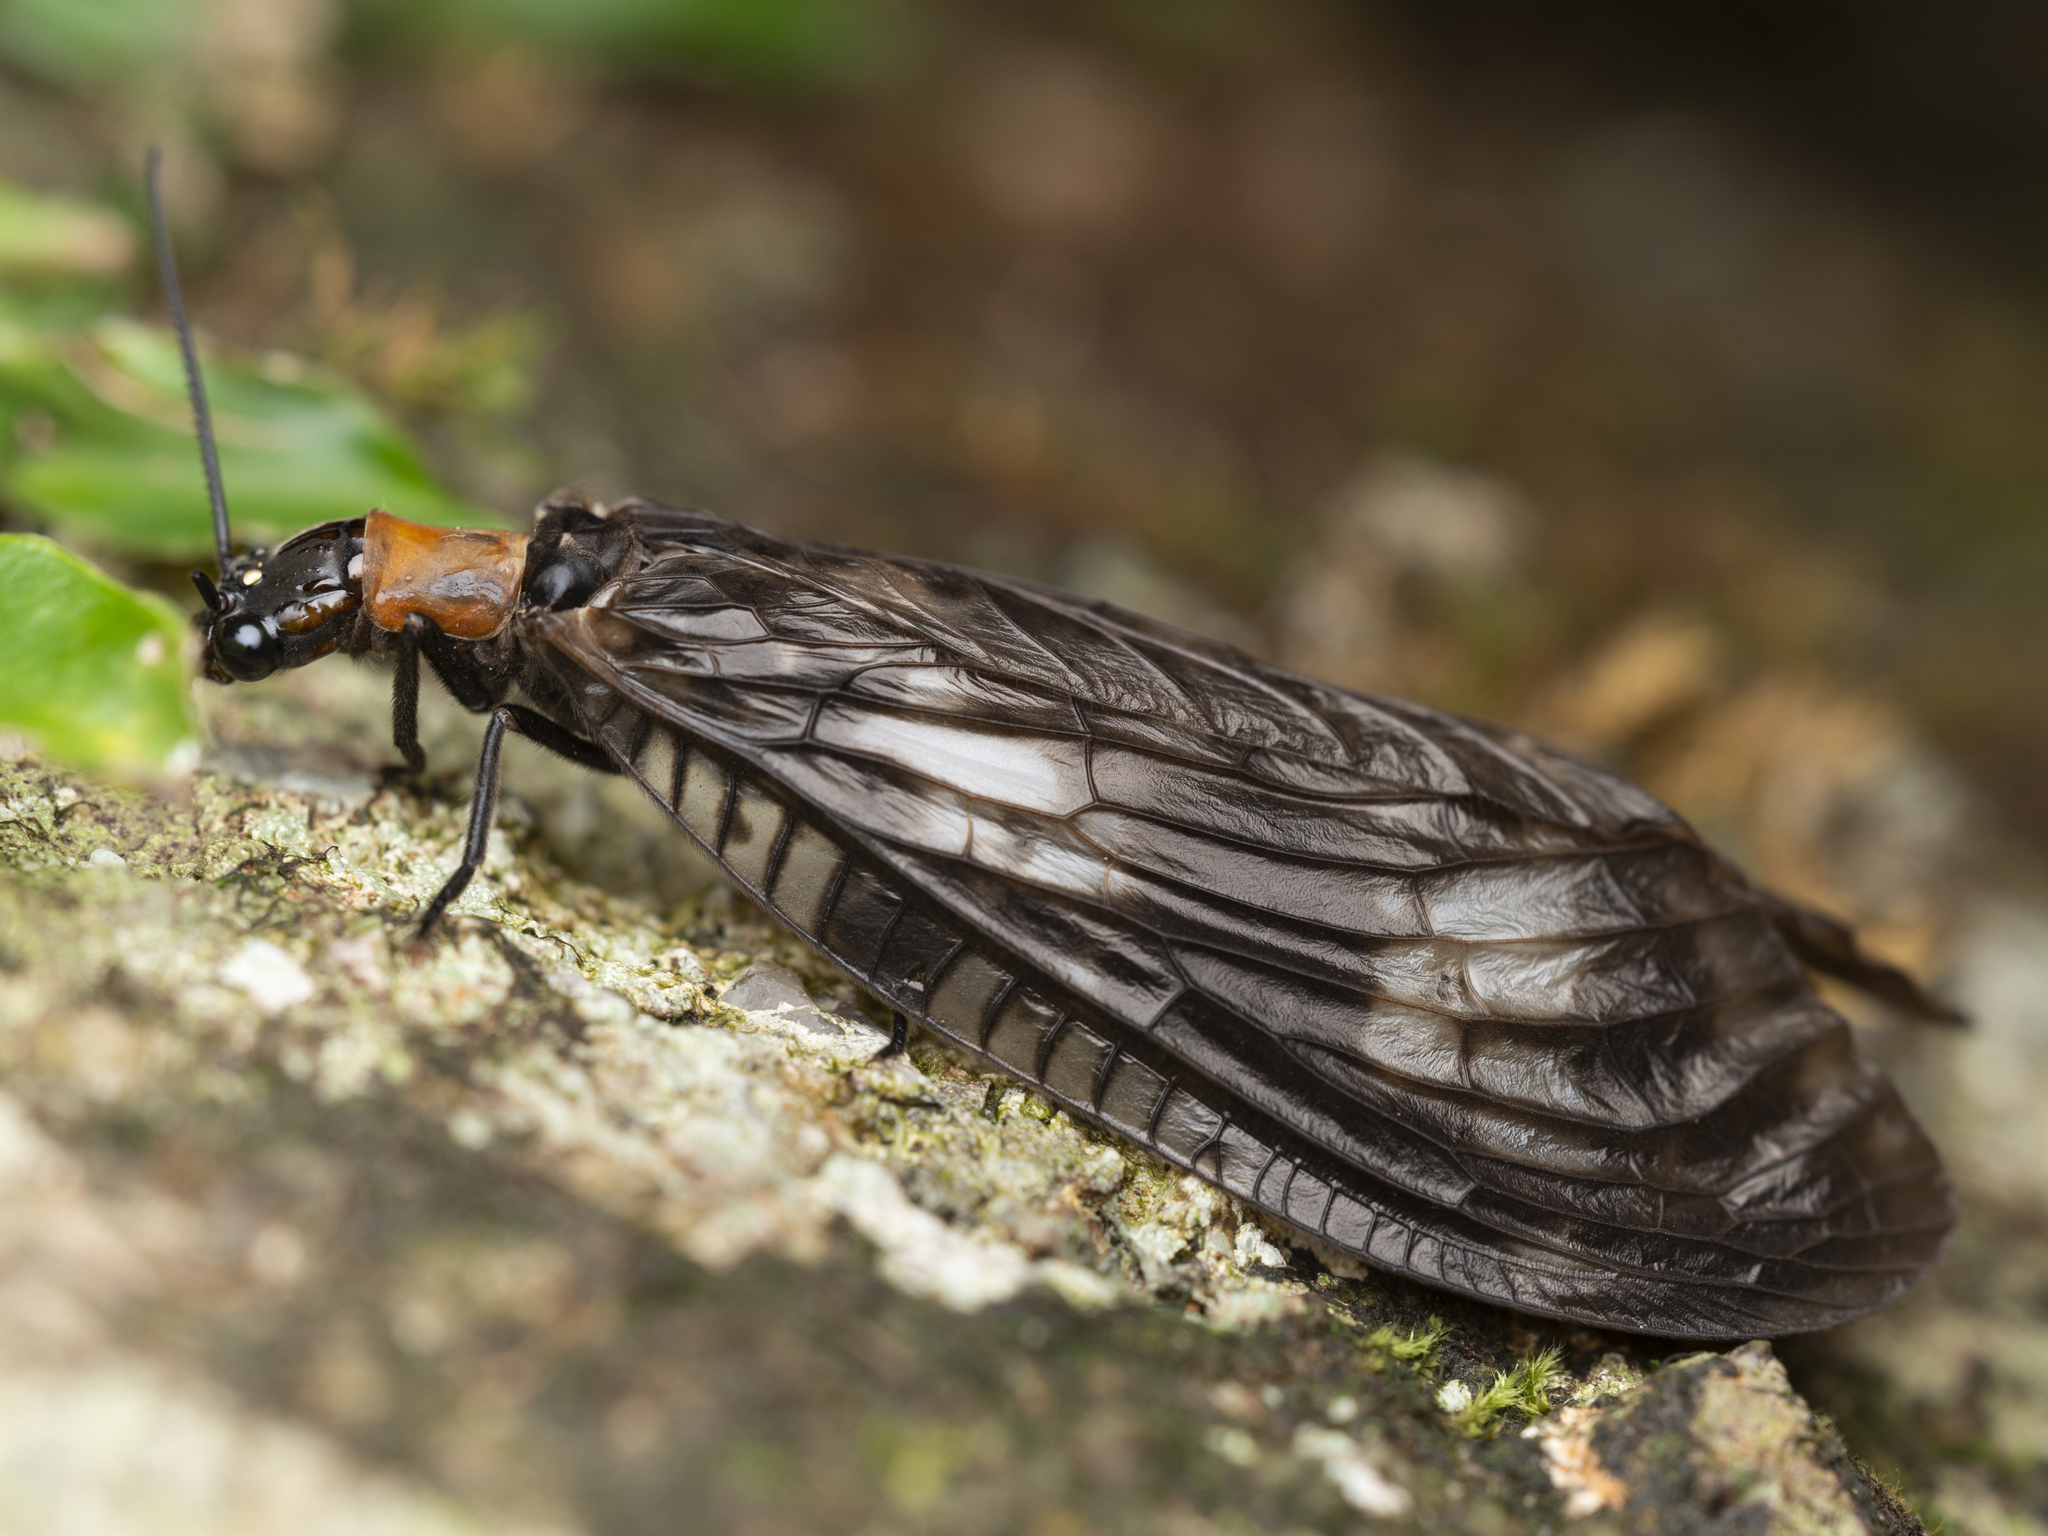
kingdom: Animalia
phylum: Arthropoda
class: Insecta
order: Megaloptera
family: Corydalidae
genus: Neochauliodes
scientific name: Neochauliodes koreanus
